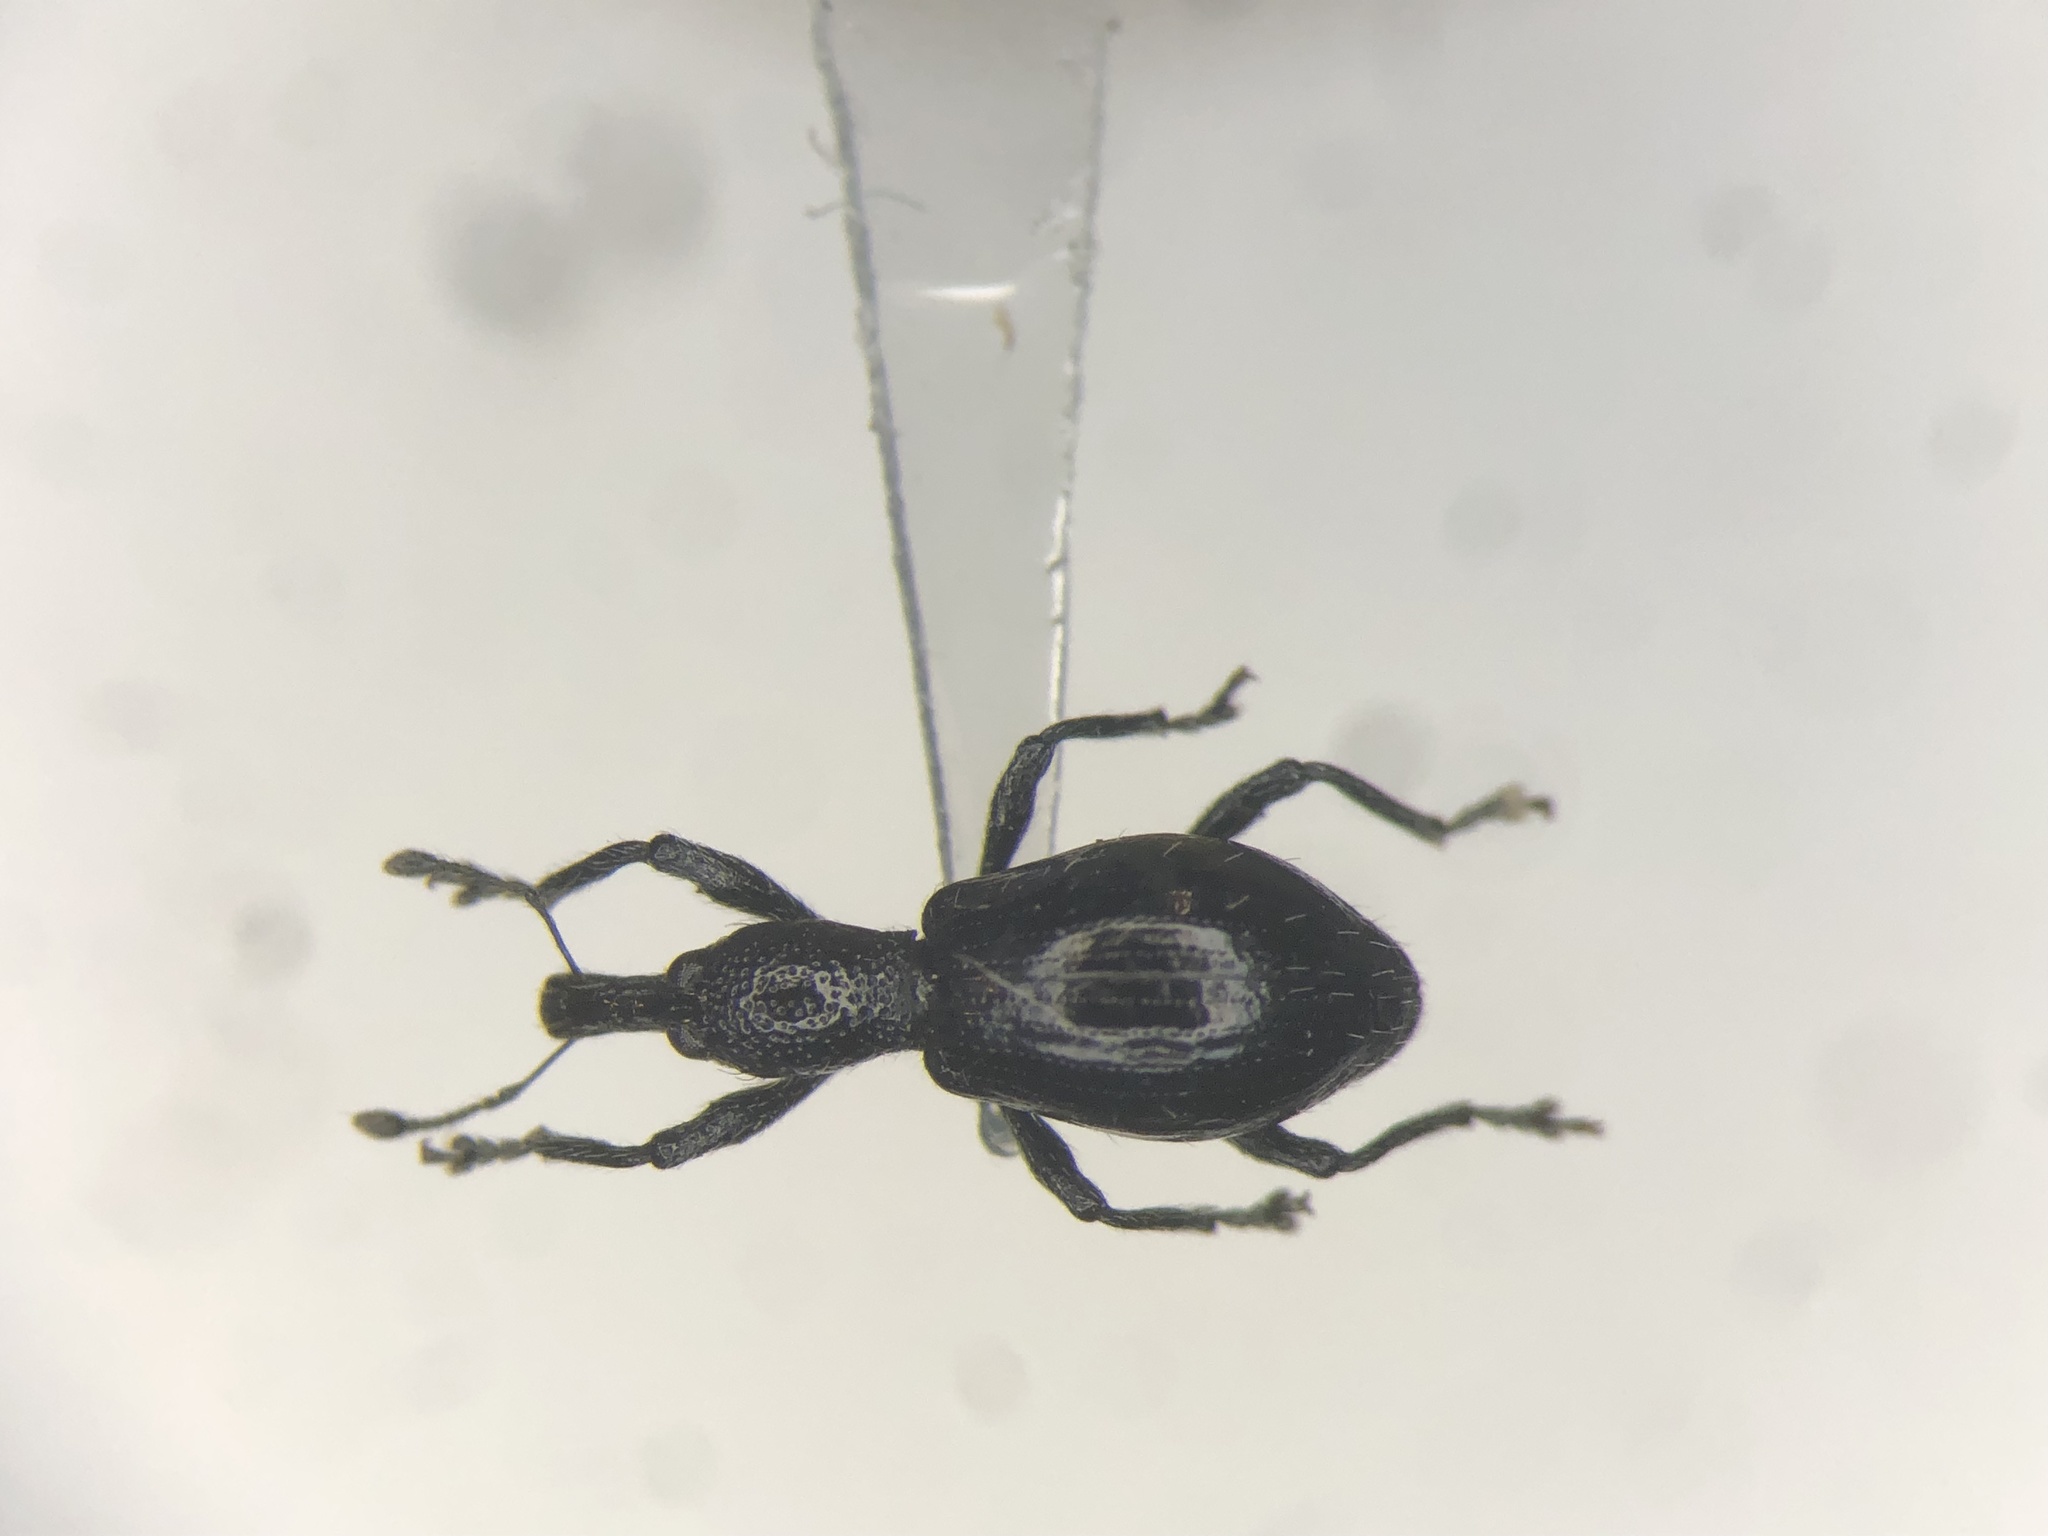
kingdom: Animalia
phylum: Arthropoda
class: Insecta
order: Coleoptera
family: Curculionidae
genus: Otidocephalus
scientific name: Otidocephalus chevrolatii
